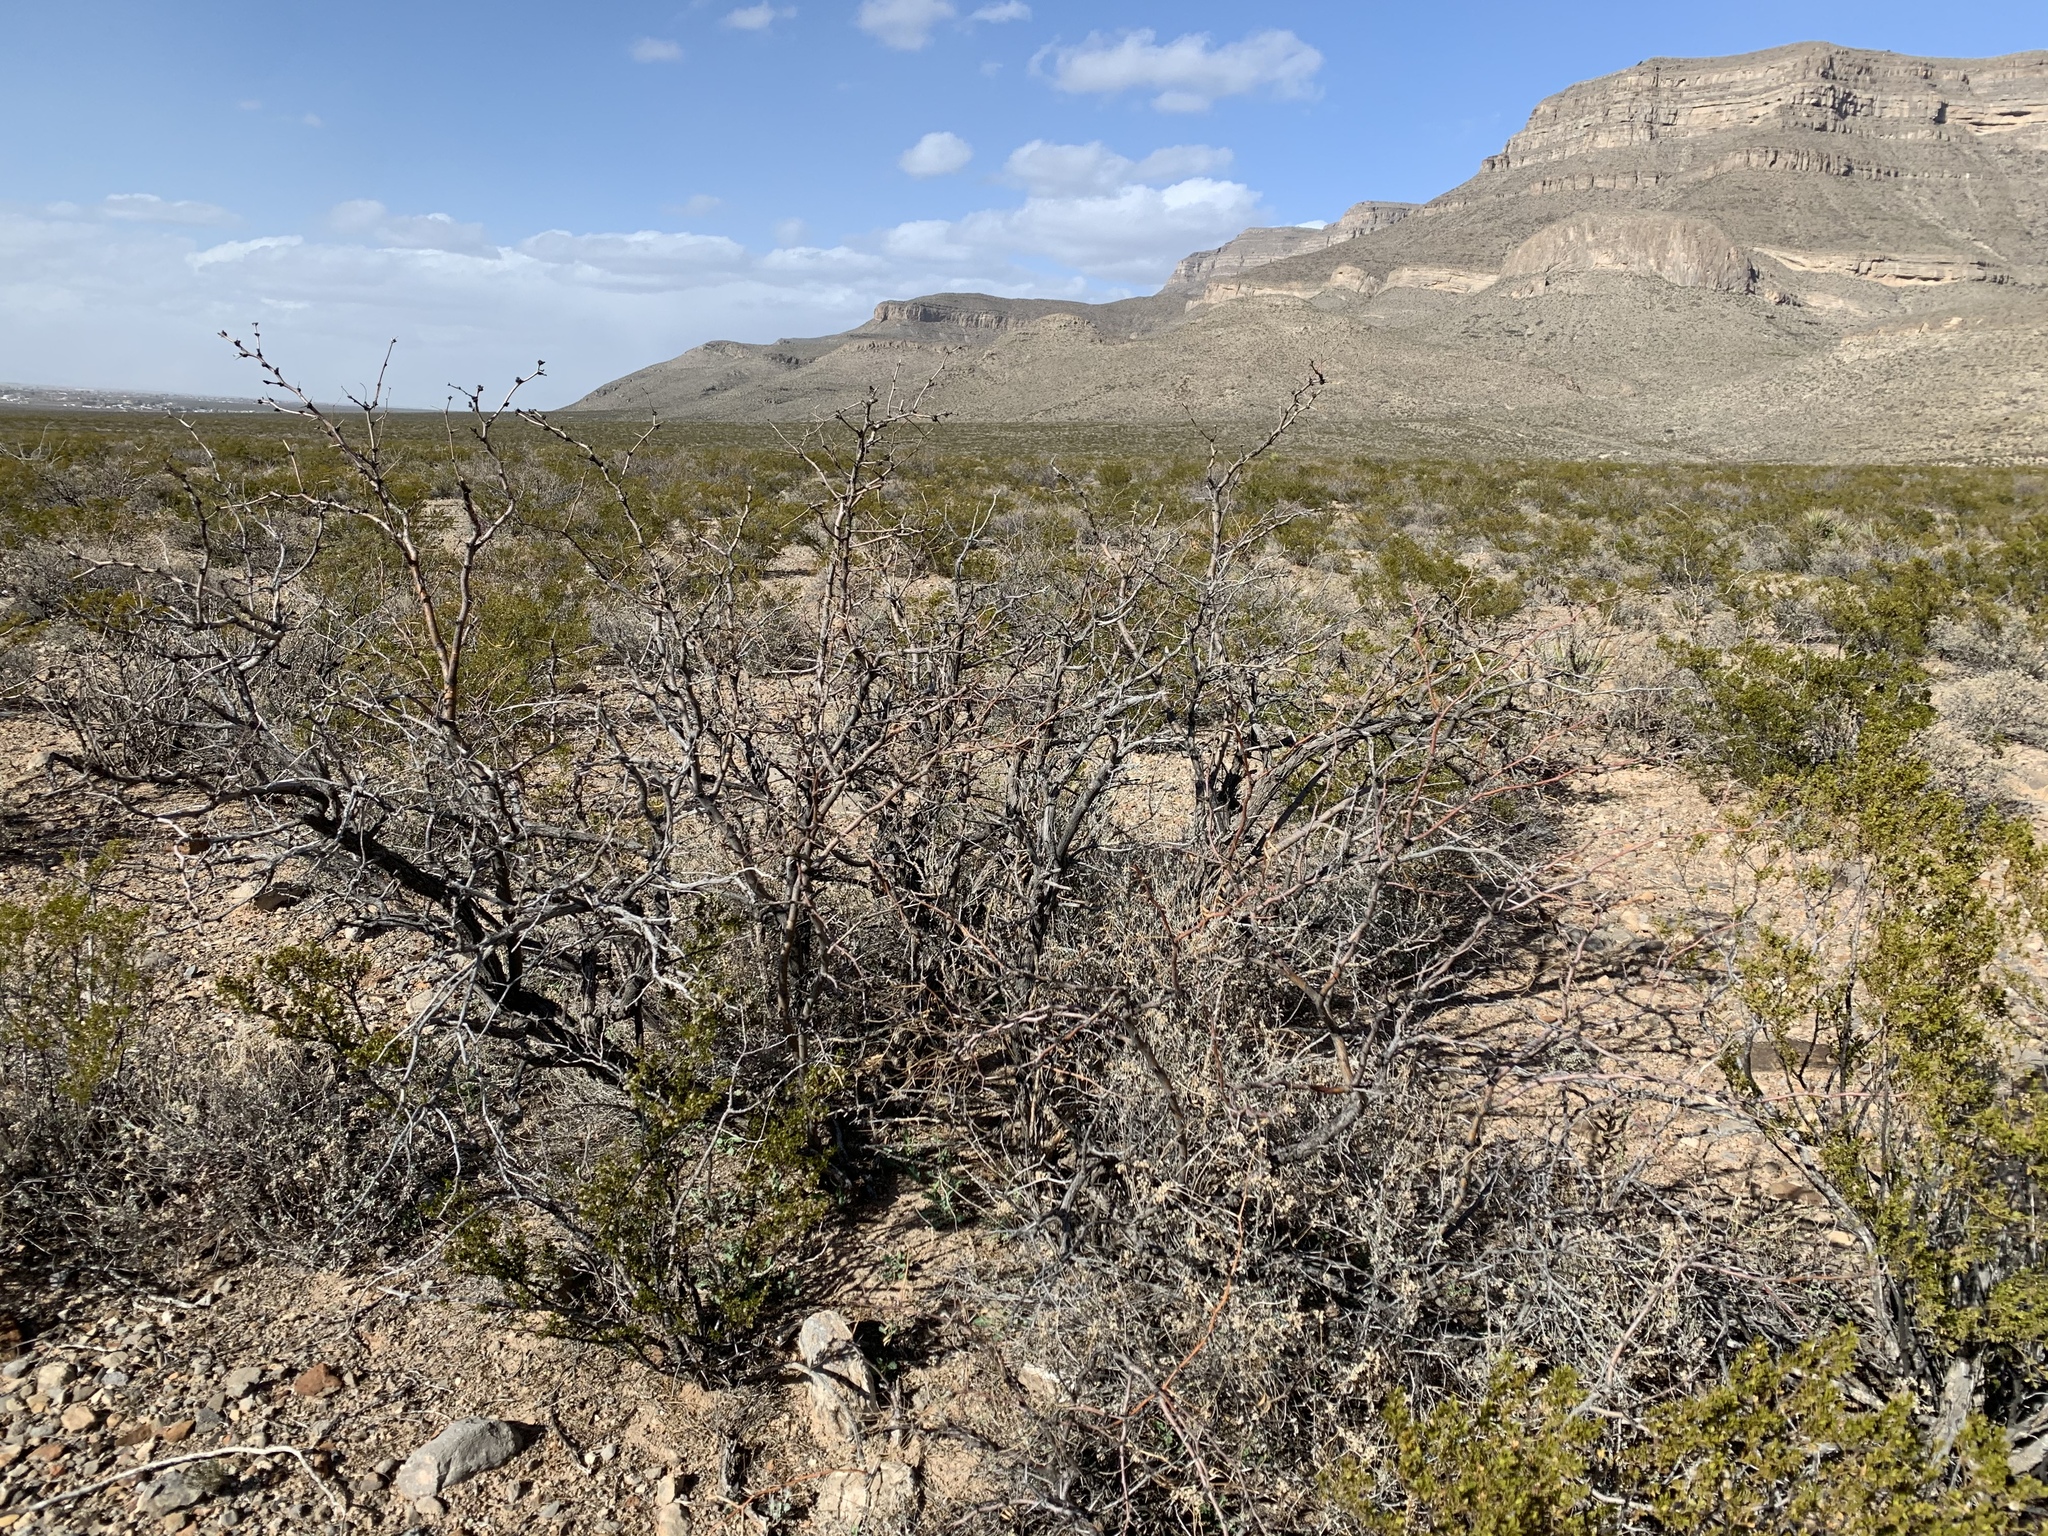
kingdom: Plantae
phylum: Tracheophyta
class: Magnoliopsida
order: Fabales
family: Fabaceae
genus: Prosopis
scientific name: Prosopis glandulosa
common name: Honey mesquite
